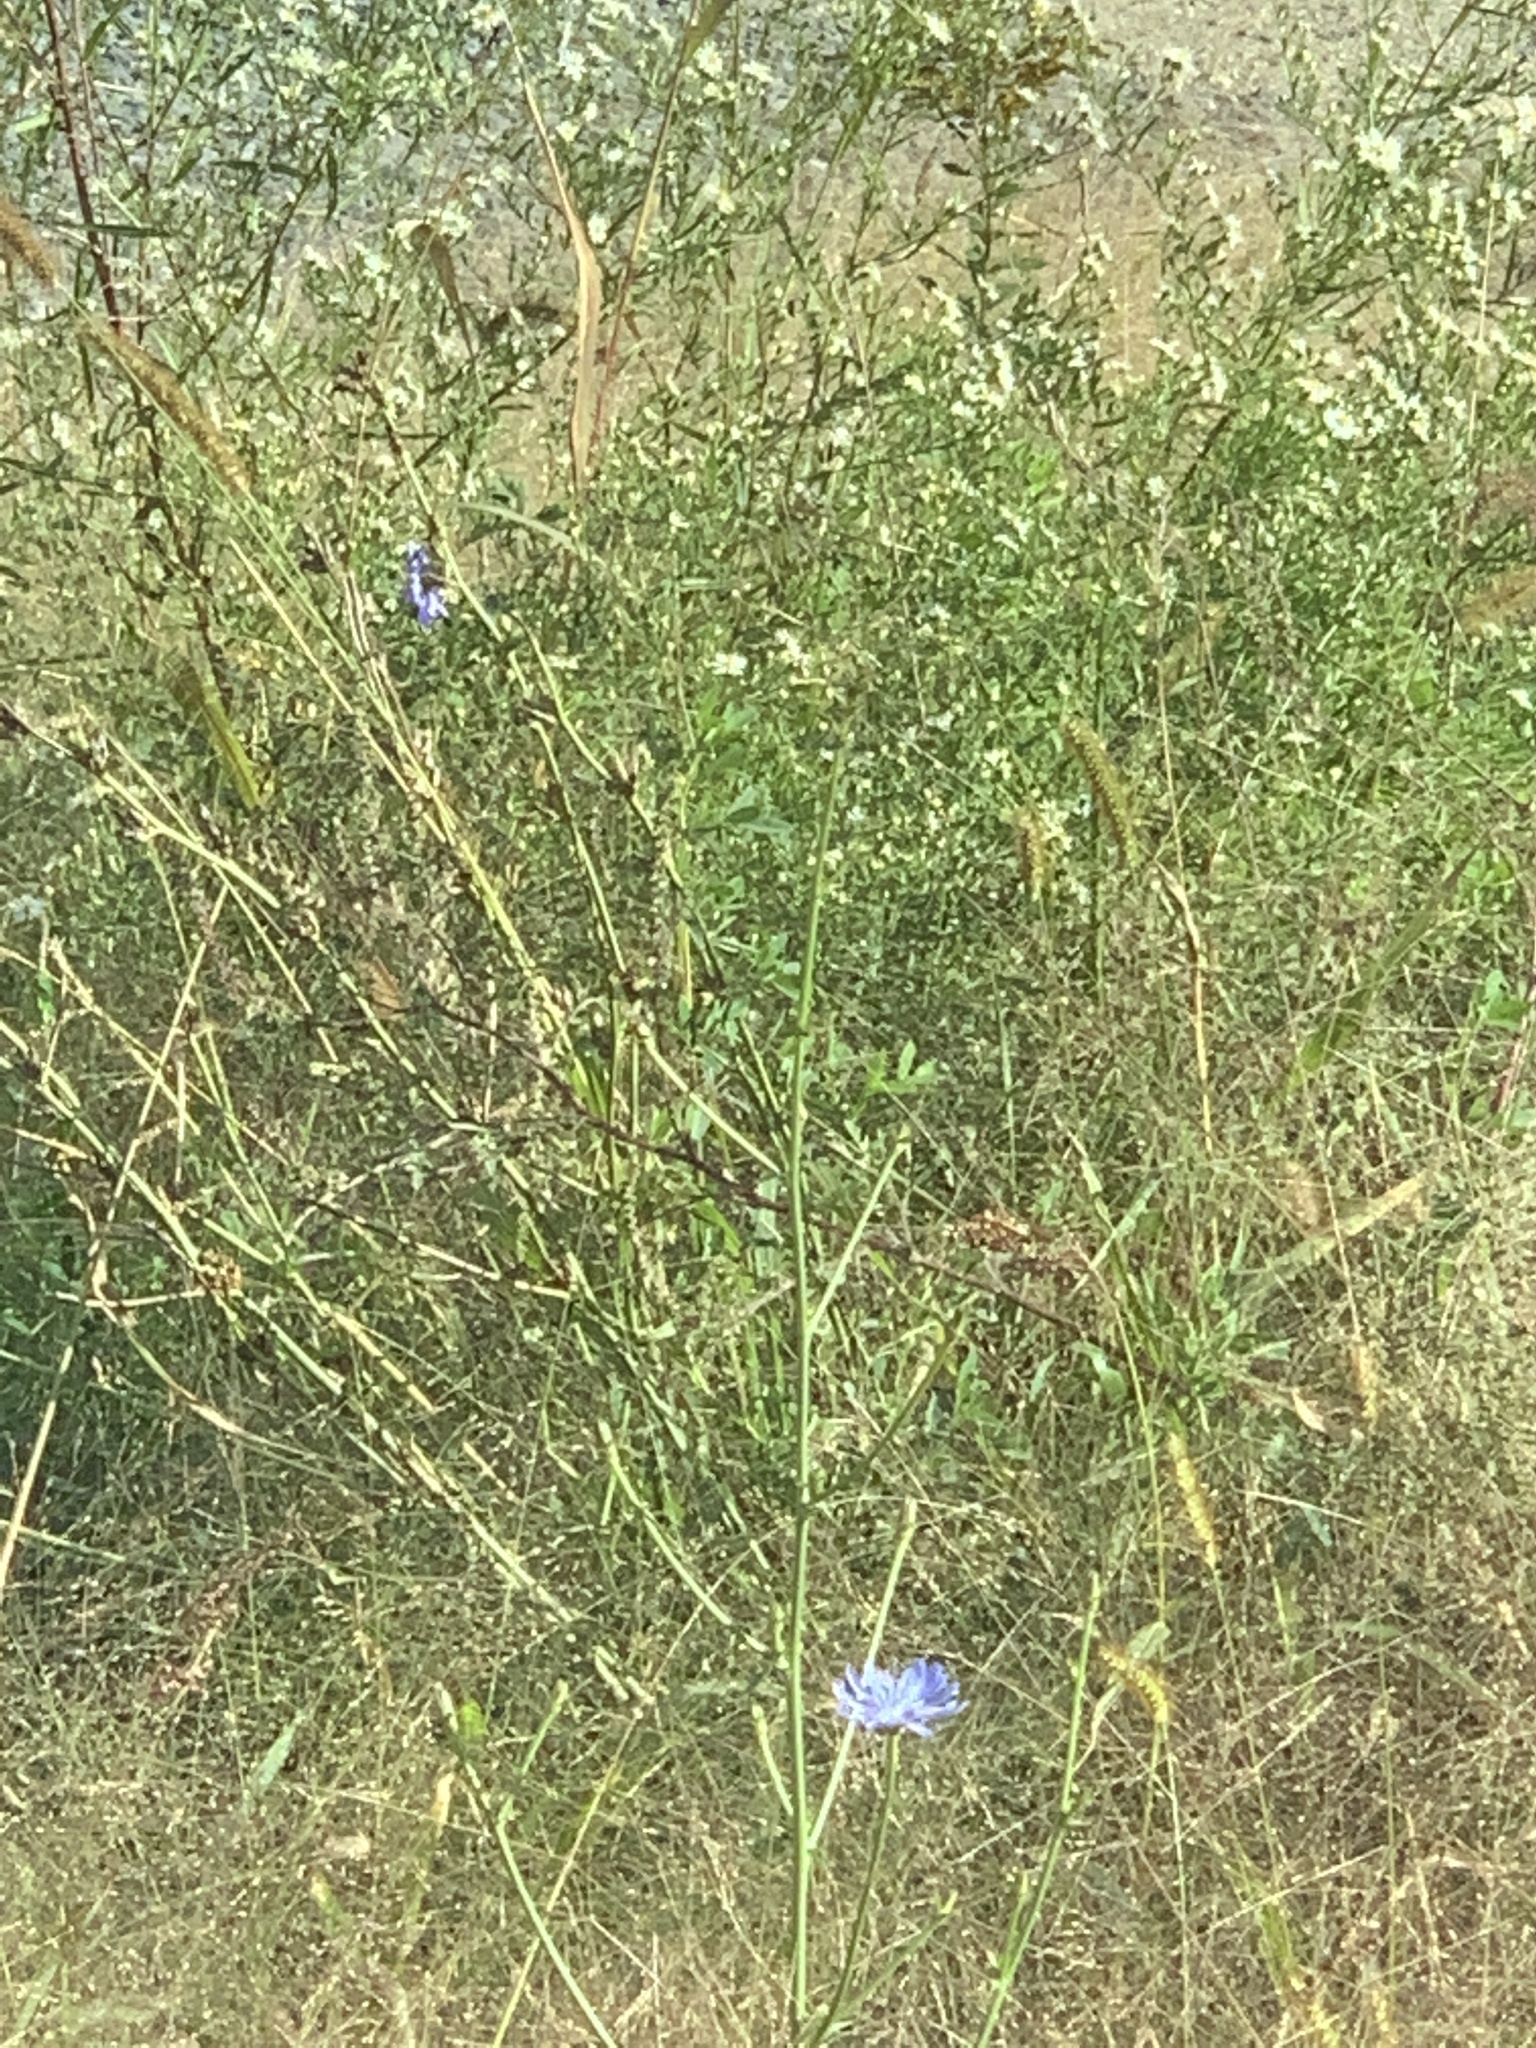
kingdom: Plantae
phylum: Tracheophyta
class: Magnoliopsida
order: Asterales
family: Asteraceae
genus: Cichorium
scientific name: Cichorium intybus
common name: Chicory
